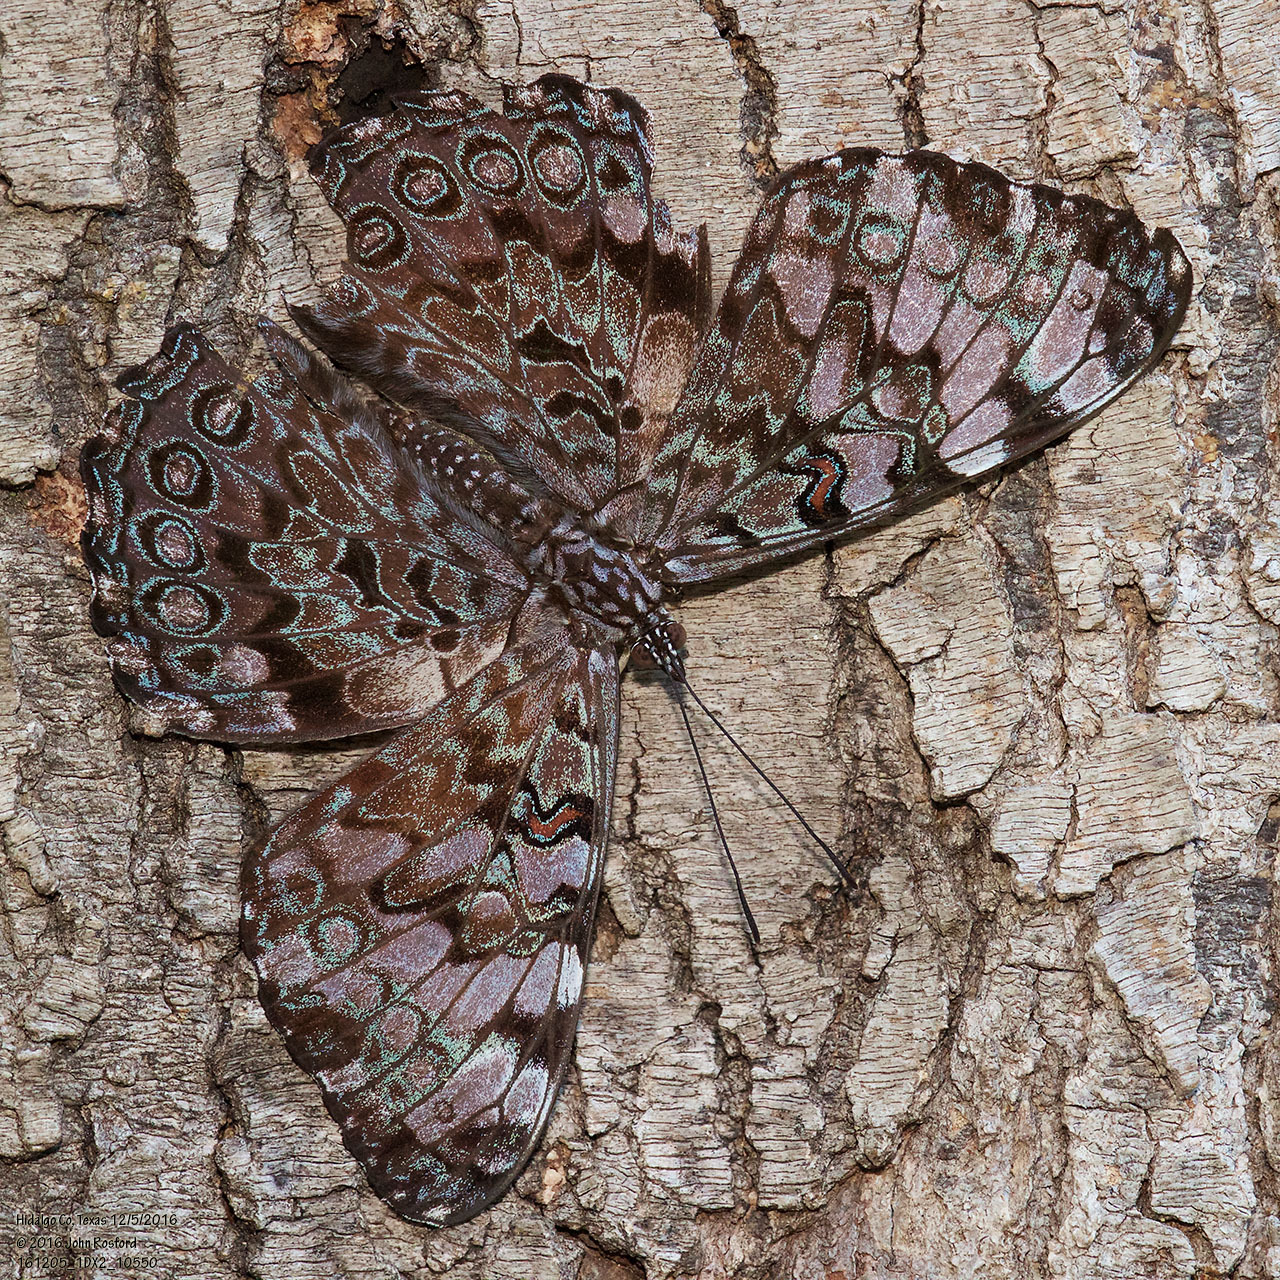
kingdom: Animalia
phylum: Arthropoda
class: Insecta
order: Lepidoptera
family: Nymphalidae
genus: Hamadryas
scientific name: Hamadryas guatemalena
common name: Guatemalan cracker
